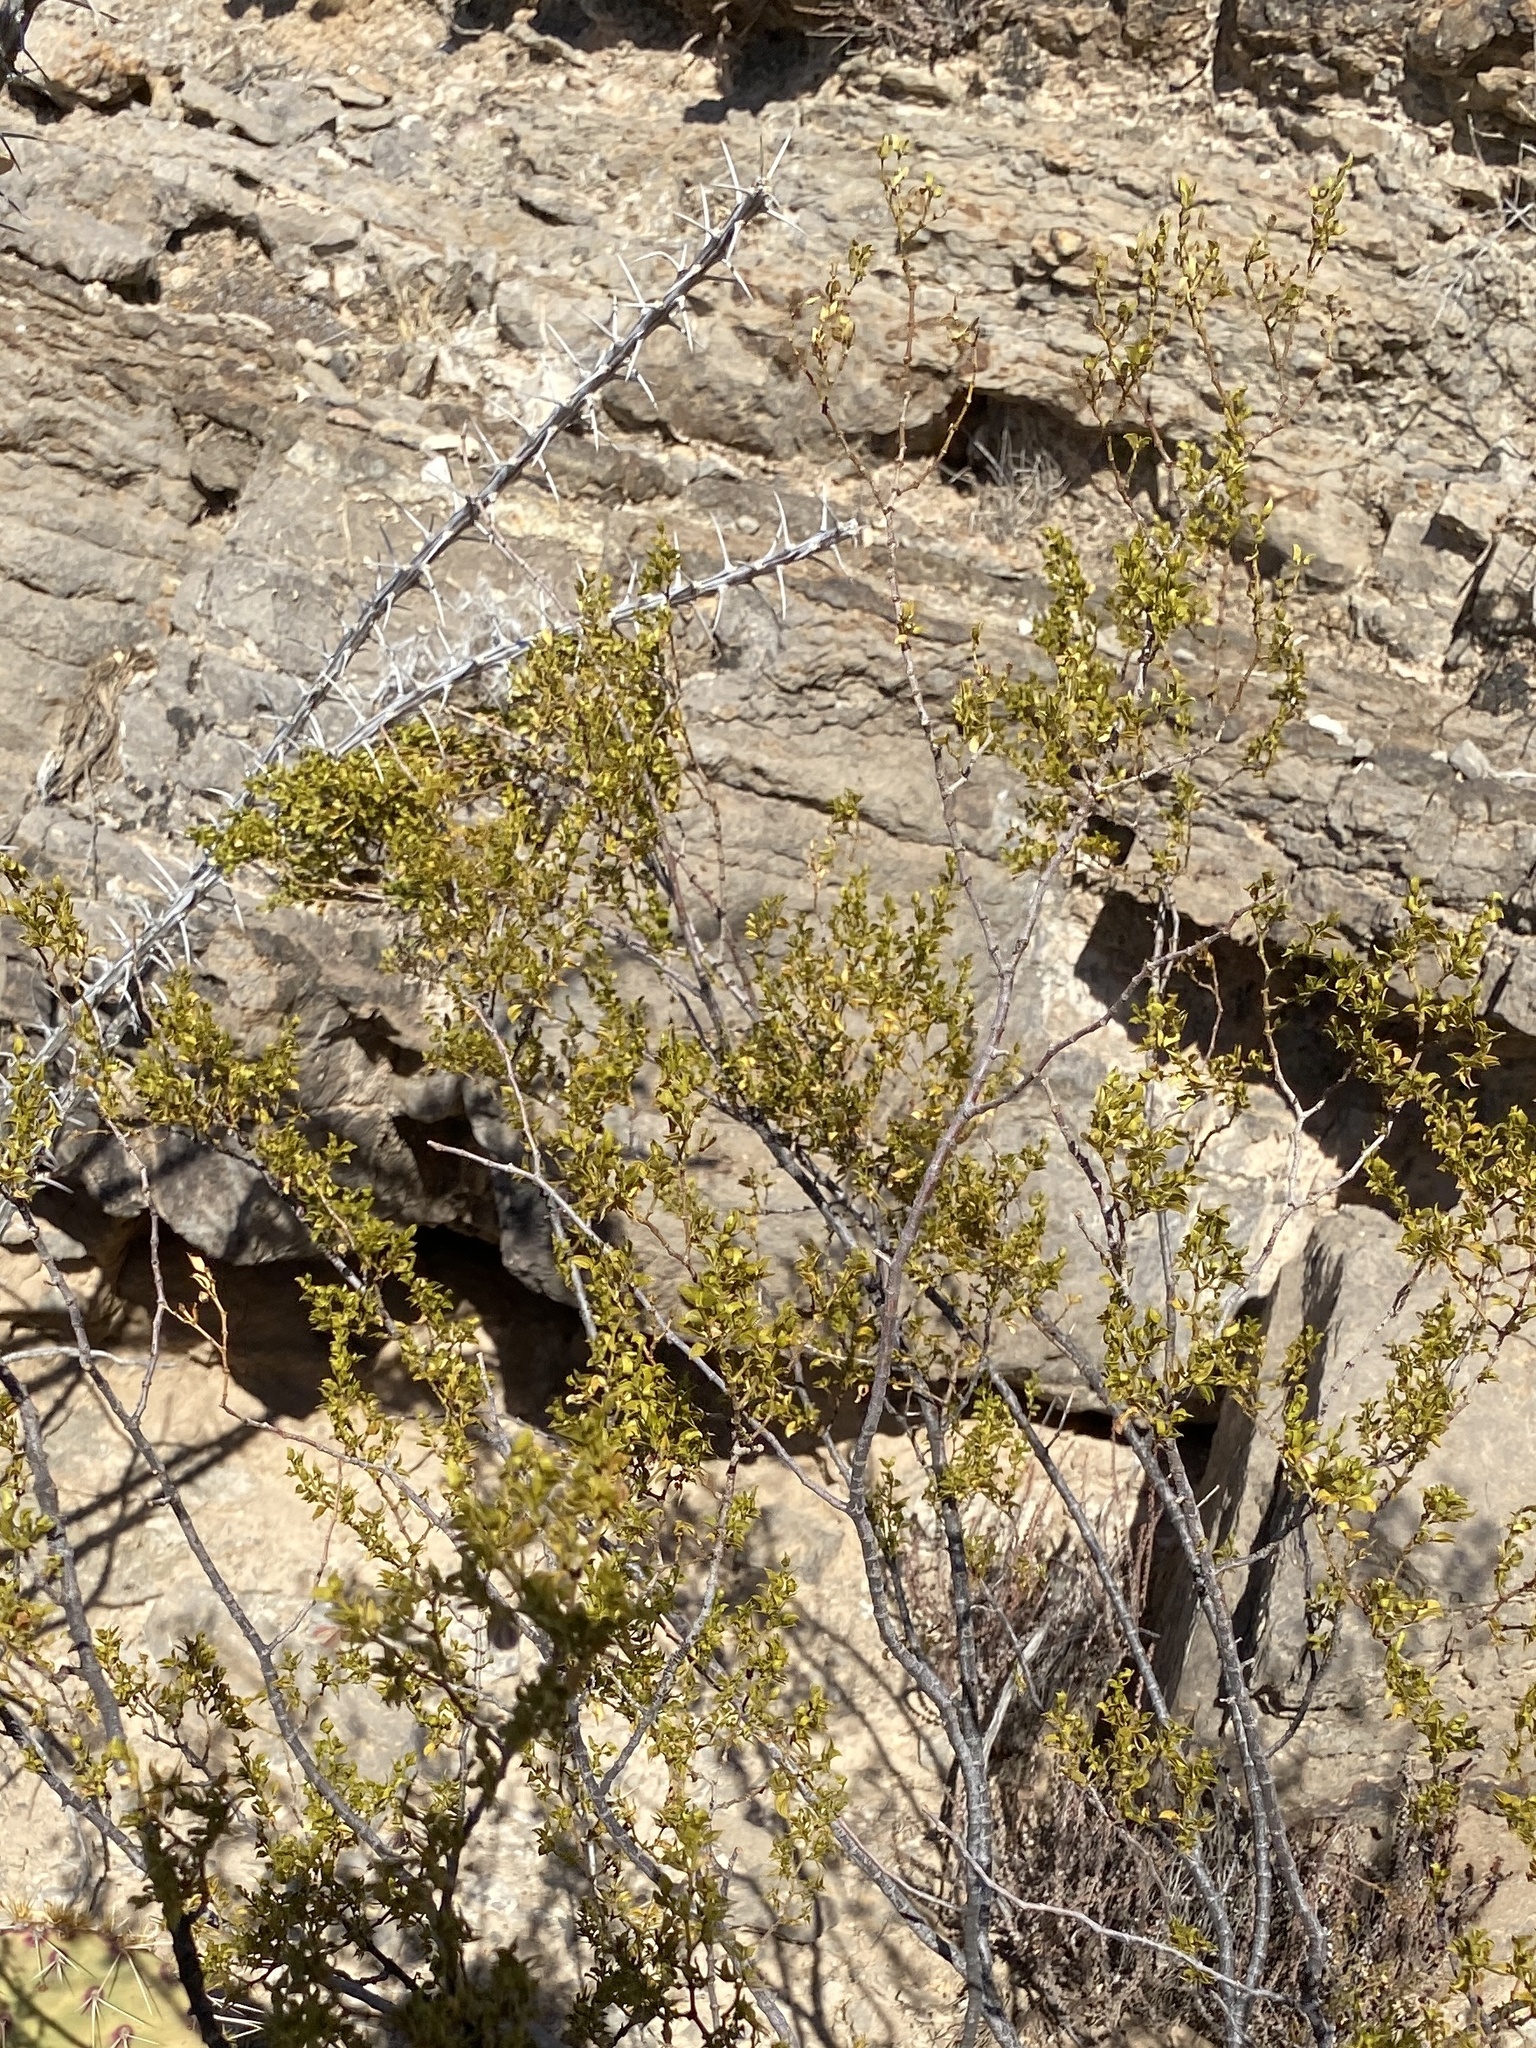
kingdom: Plantae
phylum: Tracheophyta
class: Magnoliopsida
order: Zygophyllales
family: Zygophyllaceae
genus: Larrea
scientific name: Larrea tridentata
